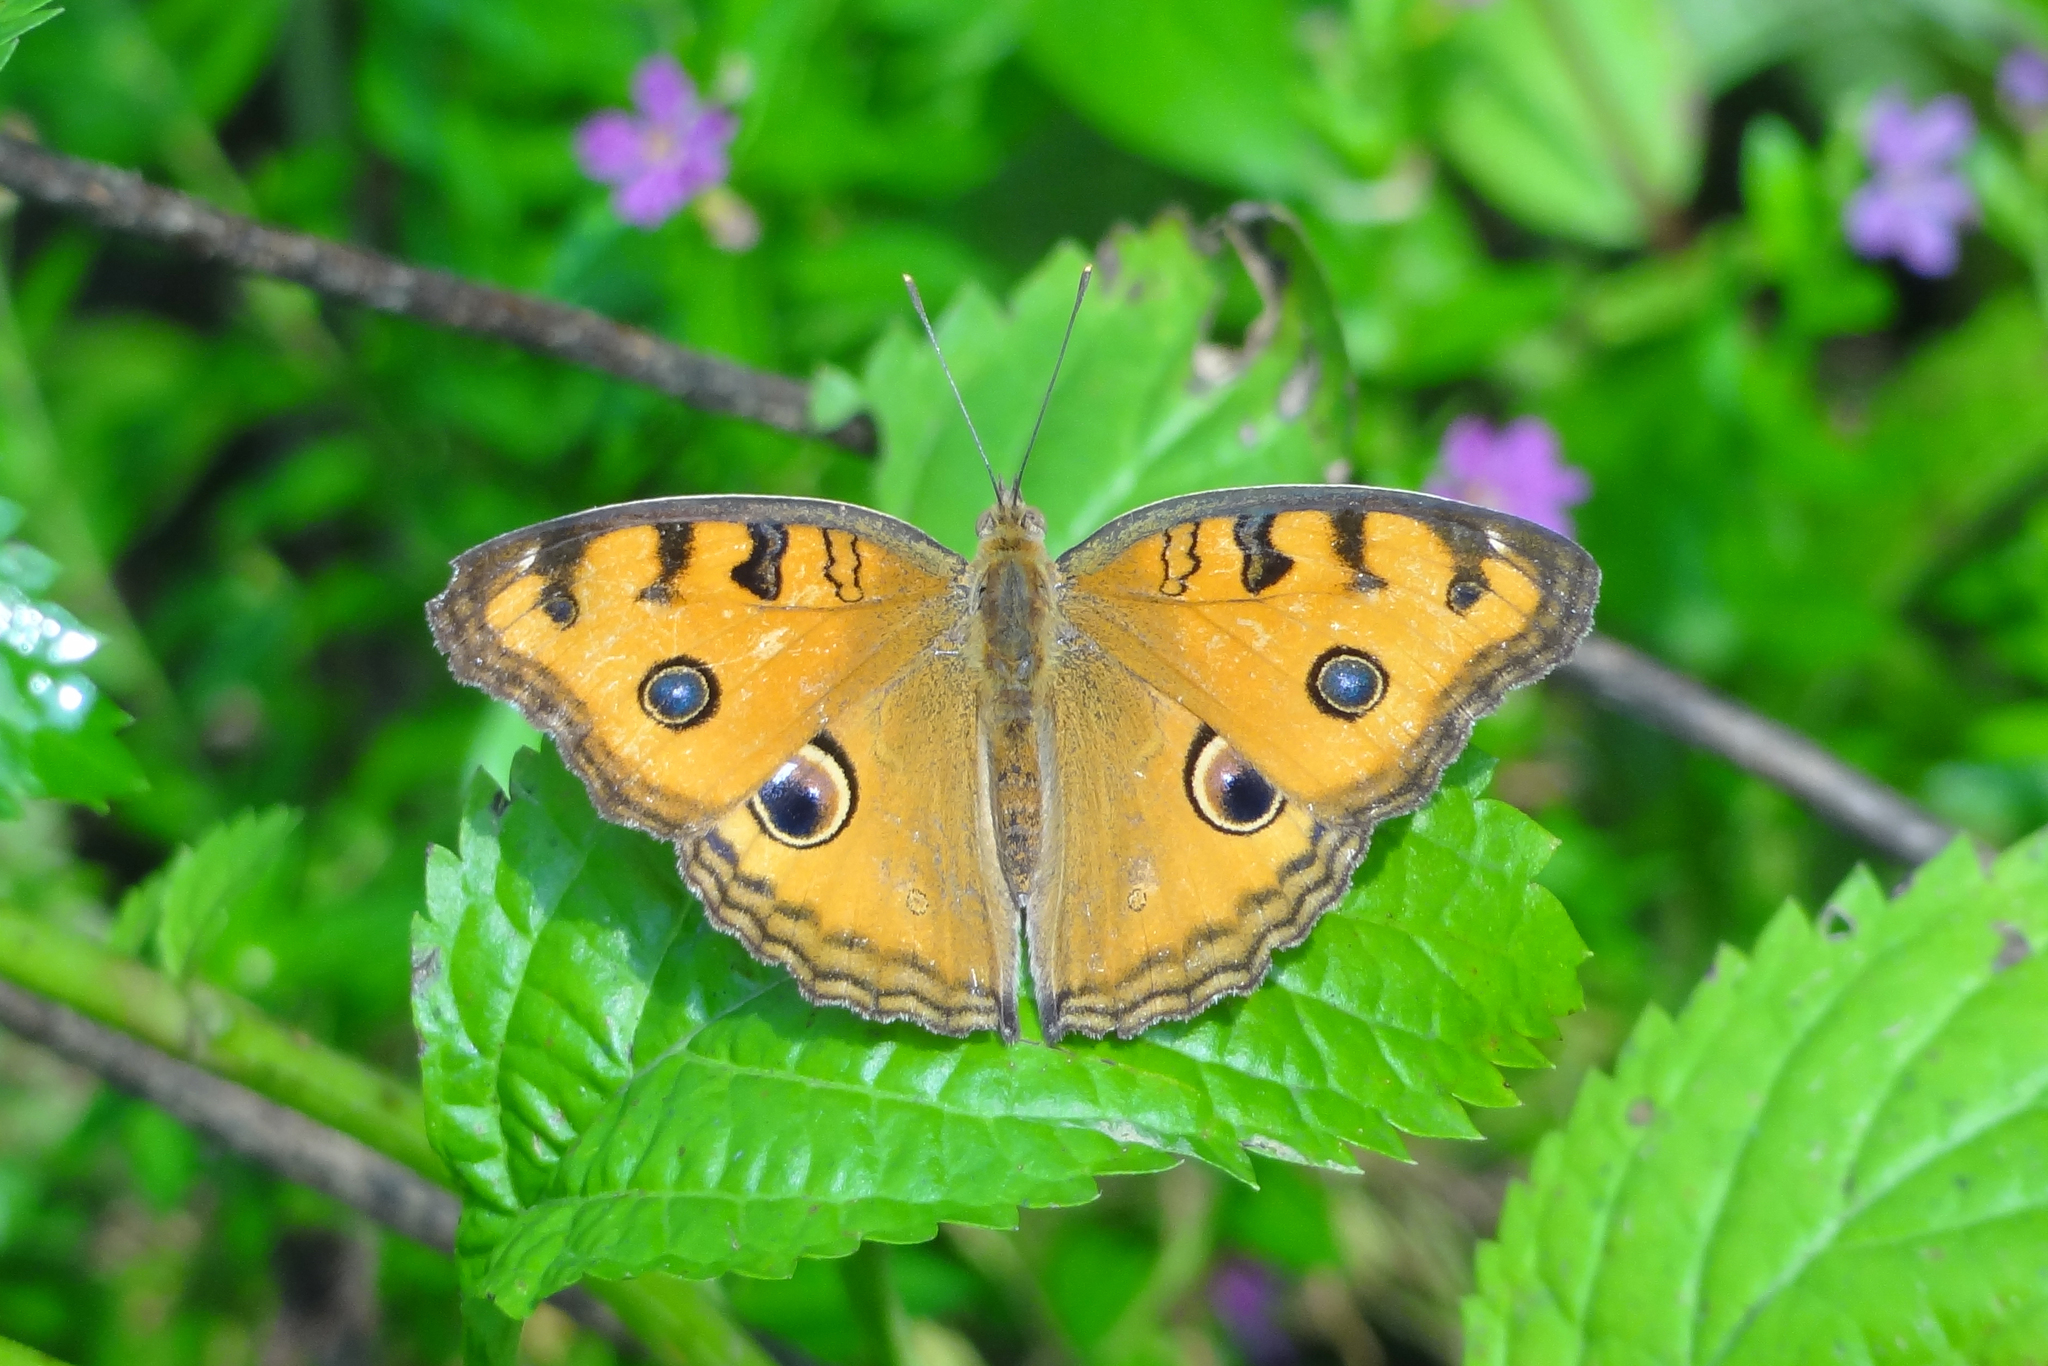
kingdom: Animalia
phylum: Arthropoda
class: Insecta
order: Lepidoptera
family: Nymphalidae
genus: Junonia
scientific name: Junonia almana
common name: Peacock pansy
